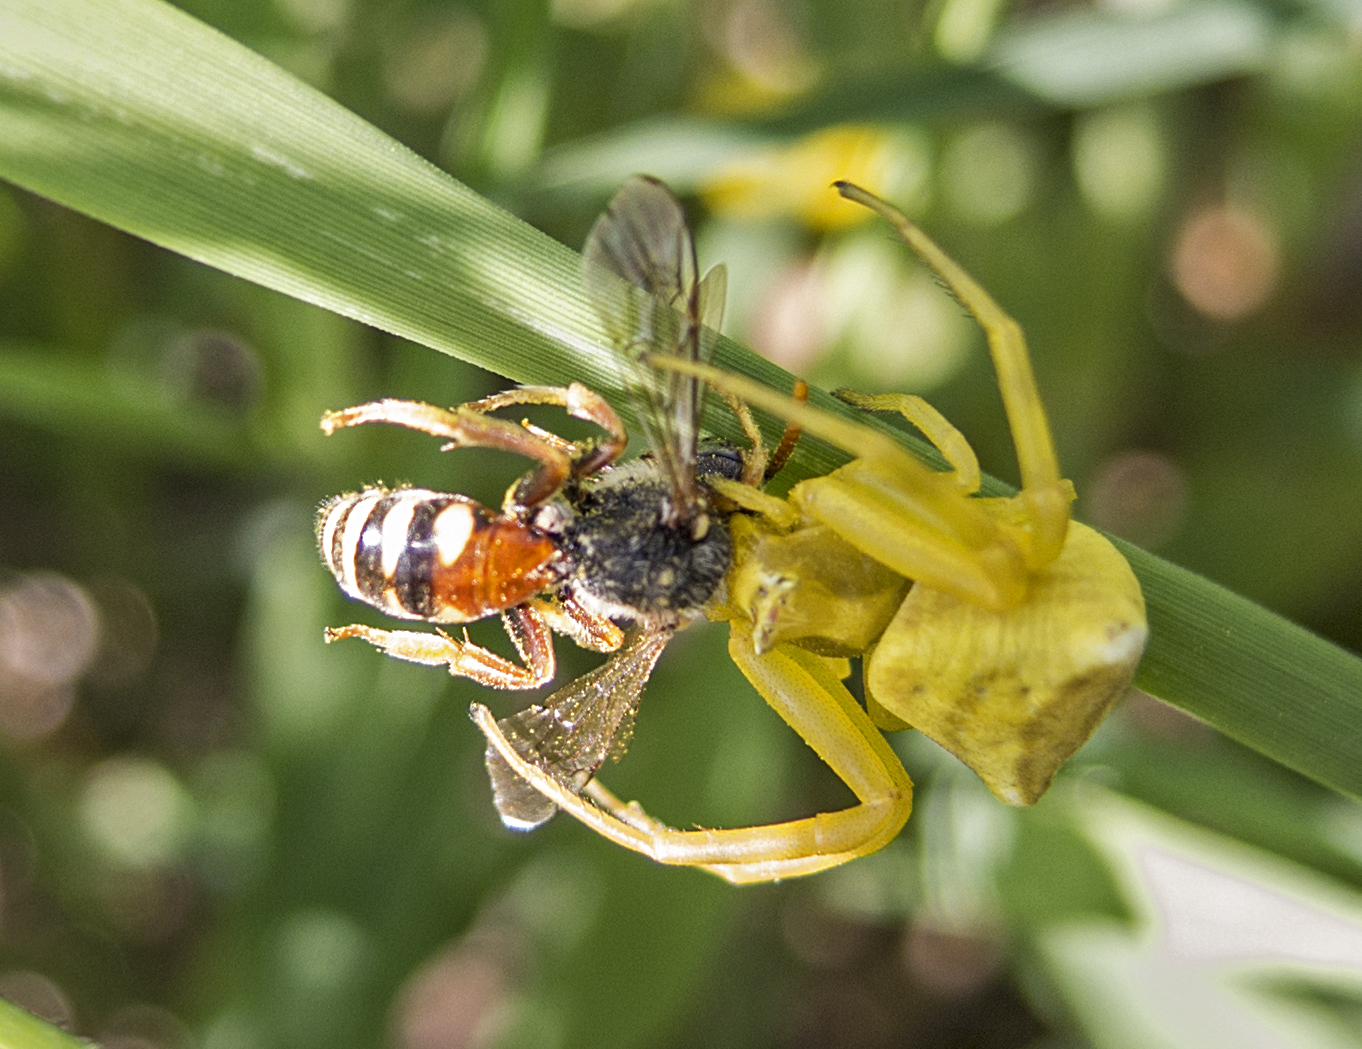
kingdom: Animalia
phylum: Arthropoda
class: Arachnida
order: Araneae
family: Thomisidae
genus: Thomisus
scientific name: Thomisus onustus
